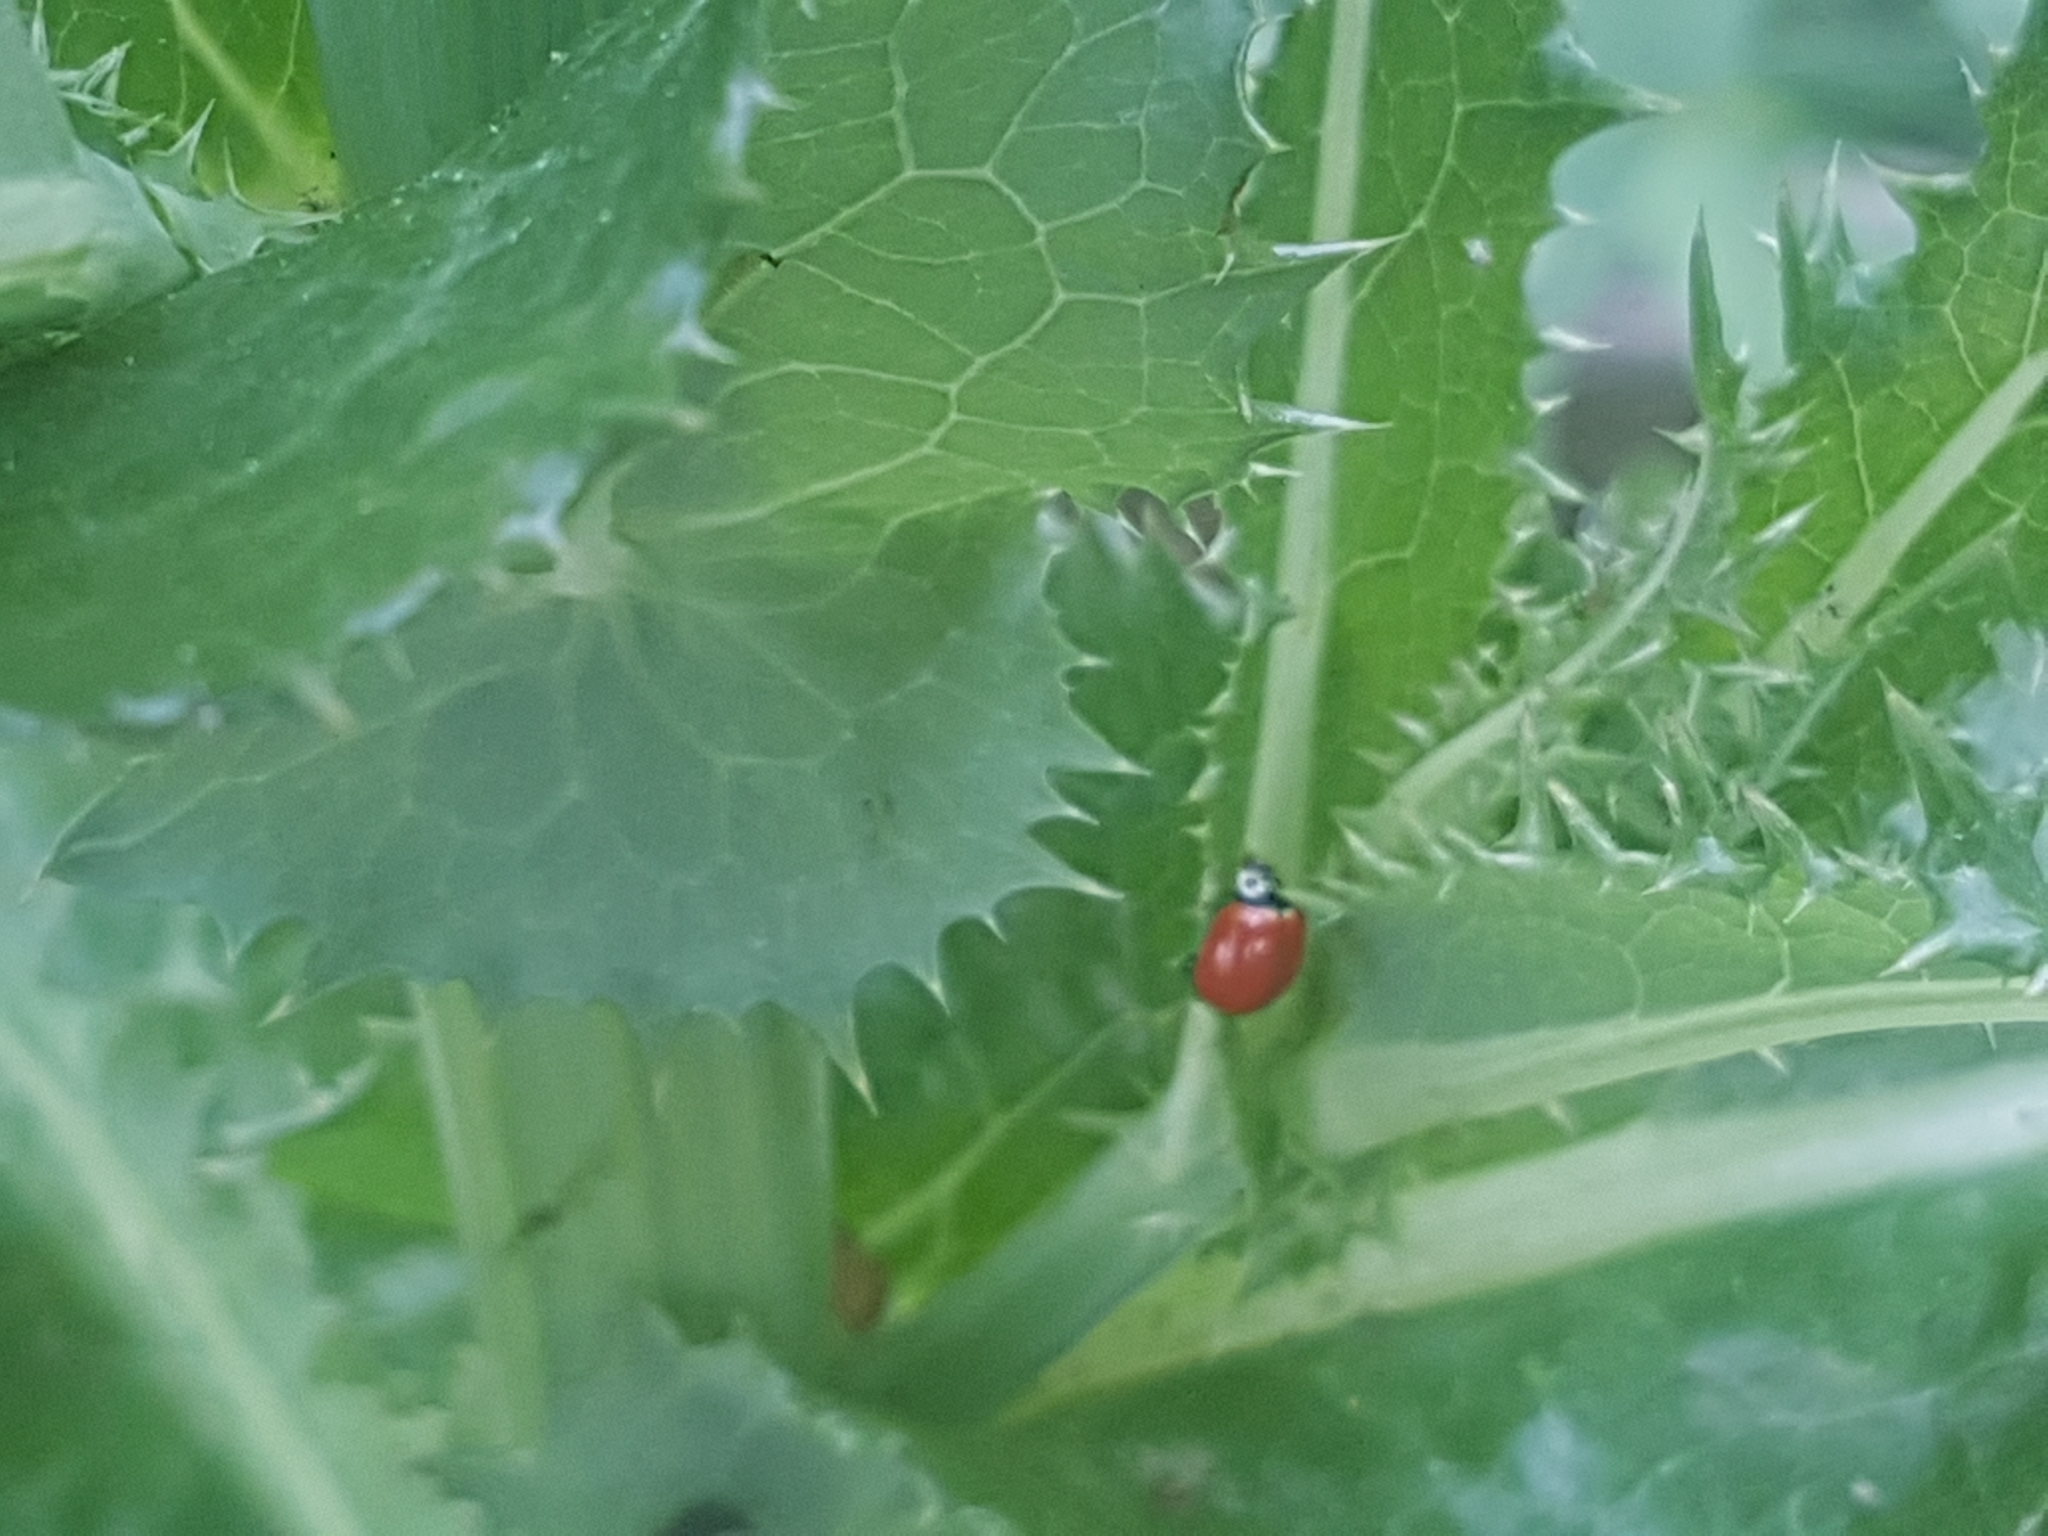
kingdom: Animalia
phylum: Arthropoda
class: Insecta
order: Coleoptera
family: Coccinellidae
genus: Cycloneda
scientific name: Cycloneda polita
